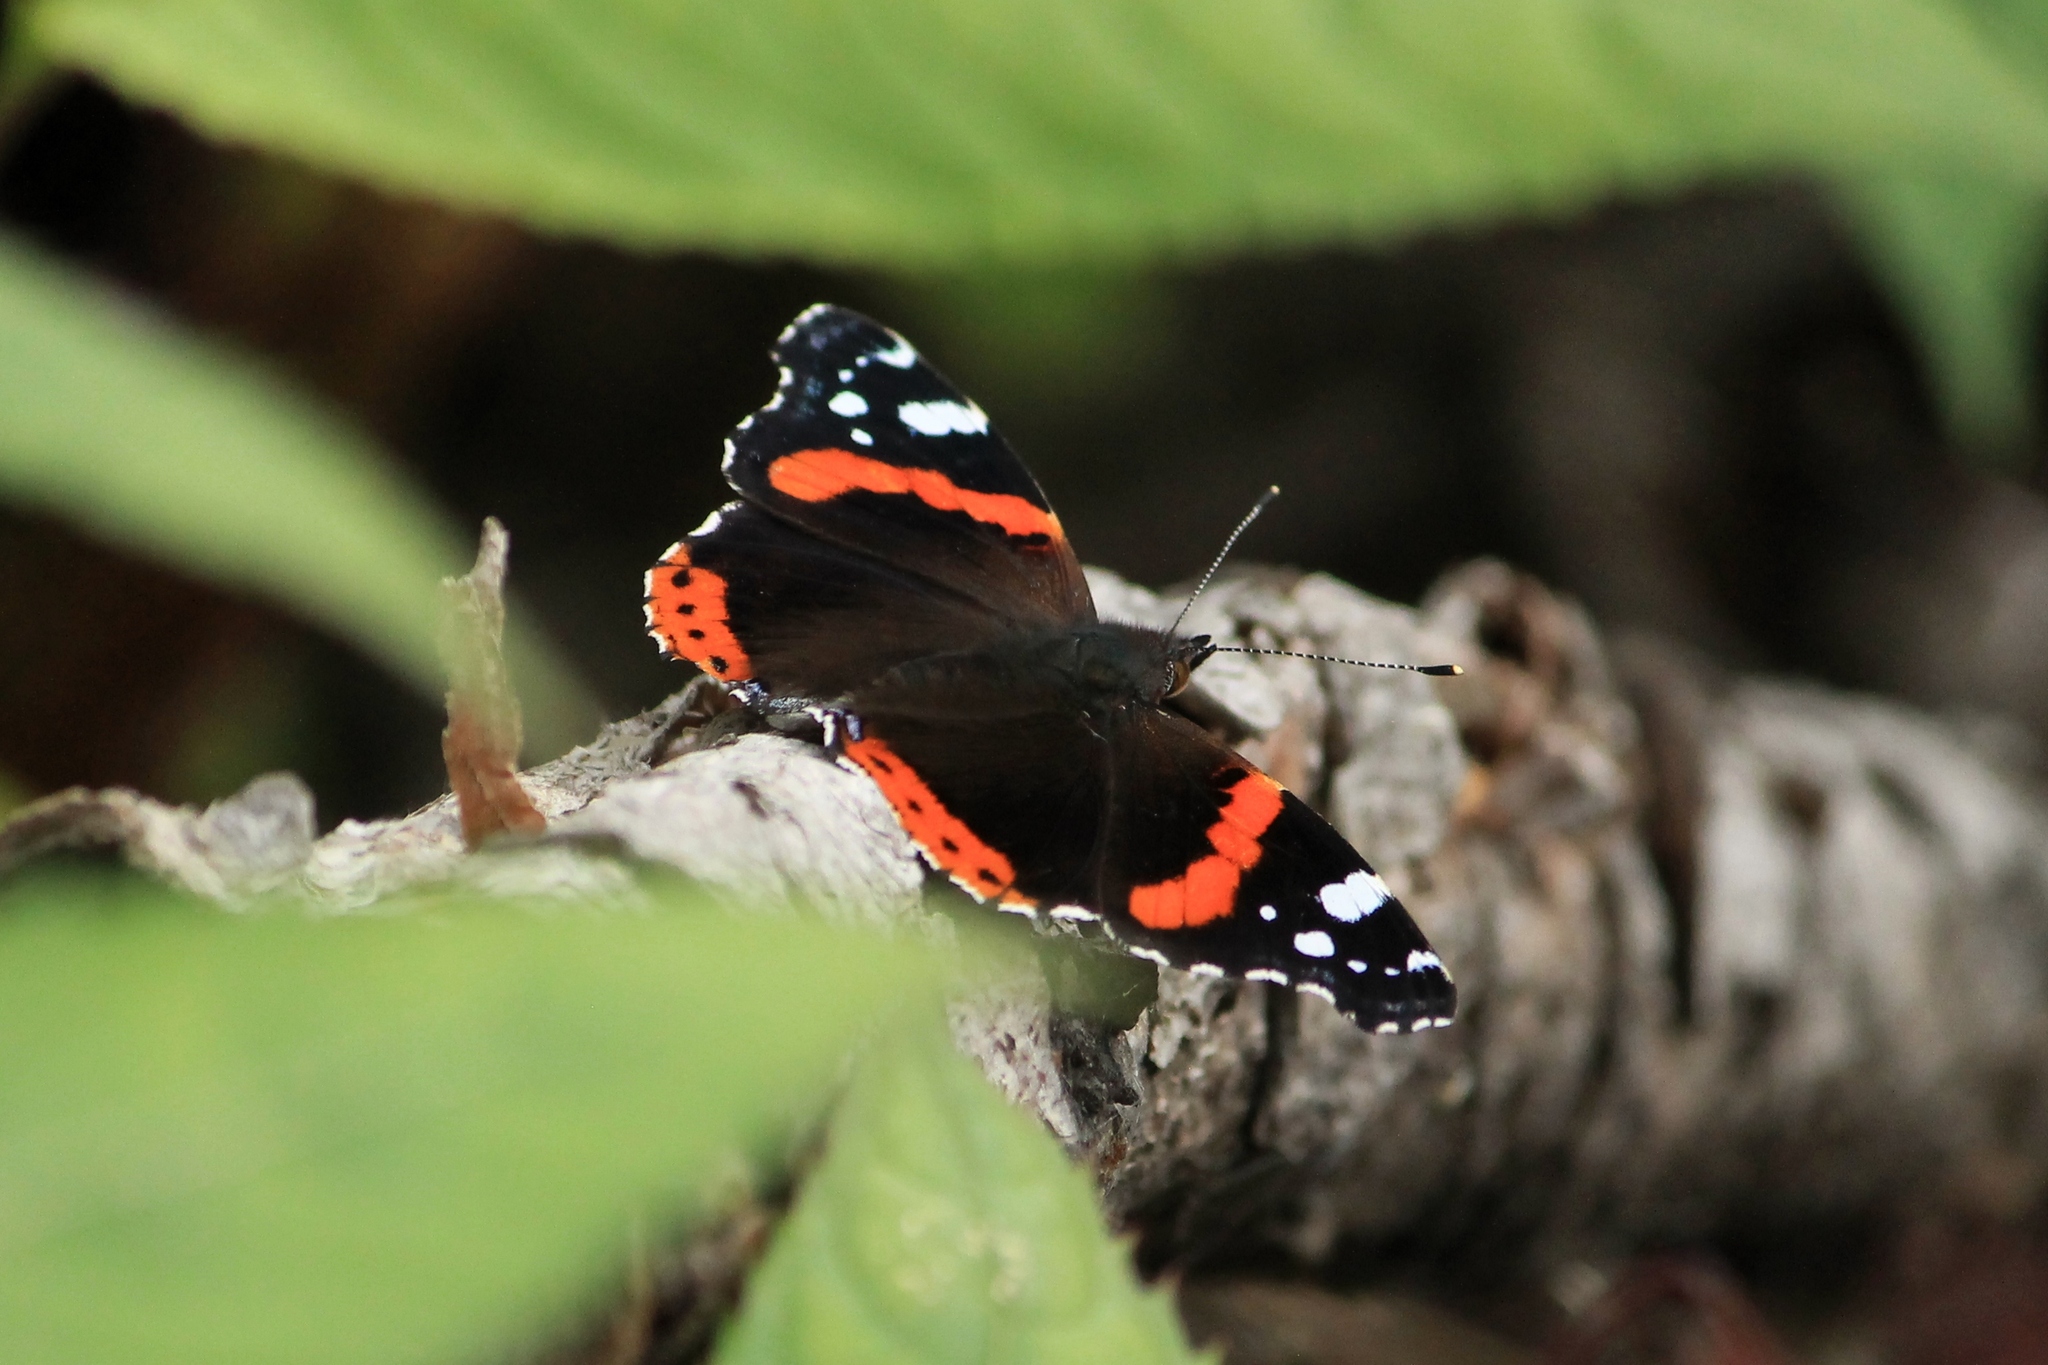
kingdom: Animalia
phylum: Arthropoda
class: Insecta
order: Lepidoptera
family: Nymphalidae
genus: Vanessa
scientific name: Vanessa atalanta
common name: Red admiral
